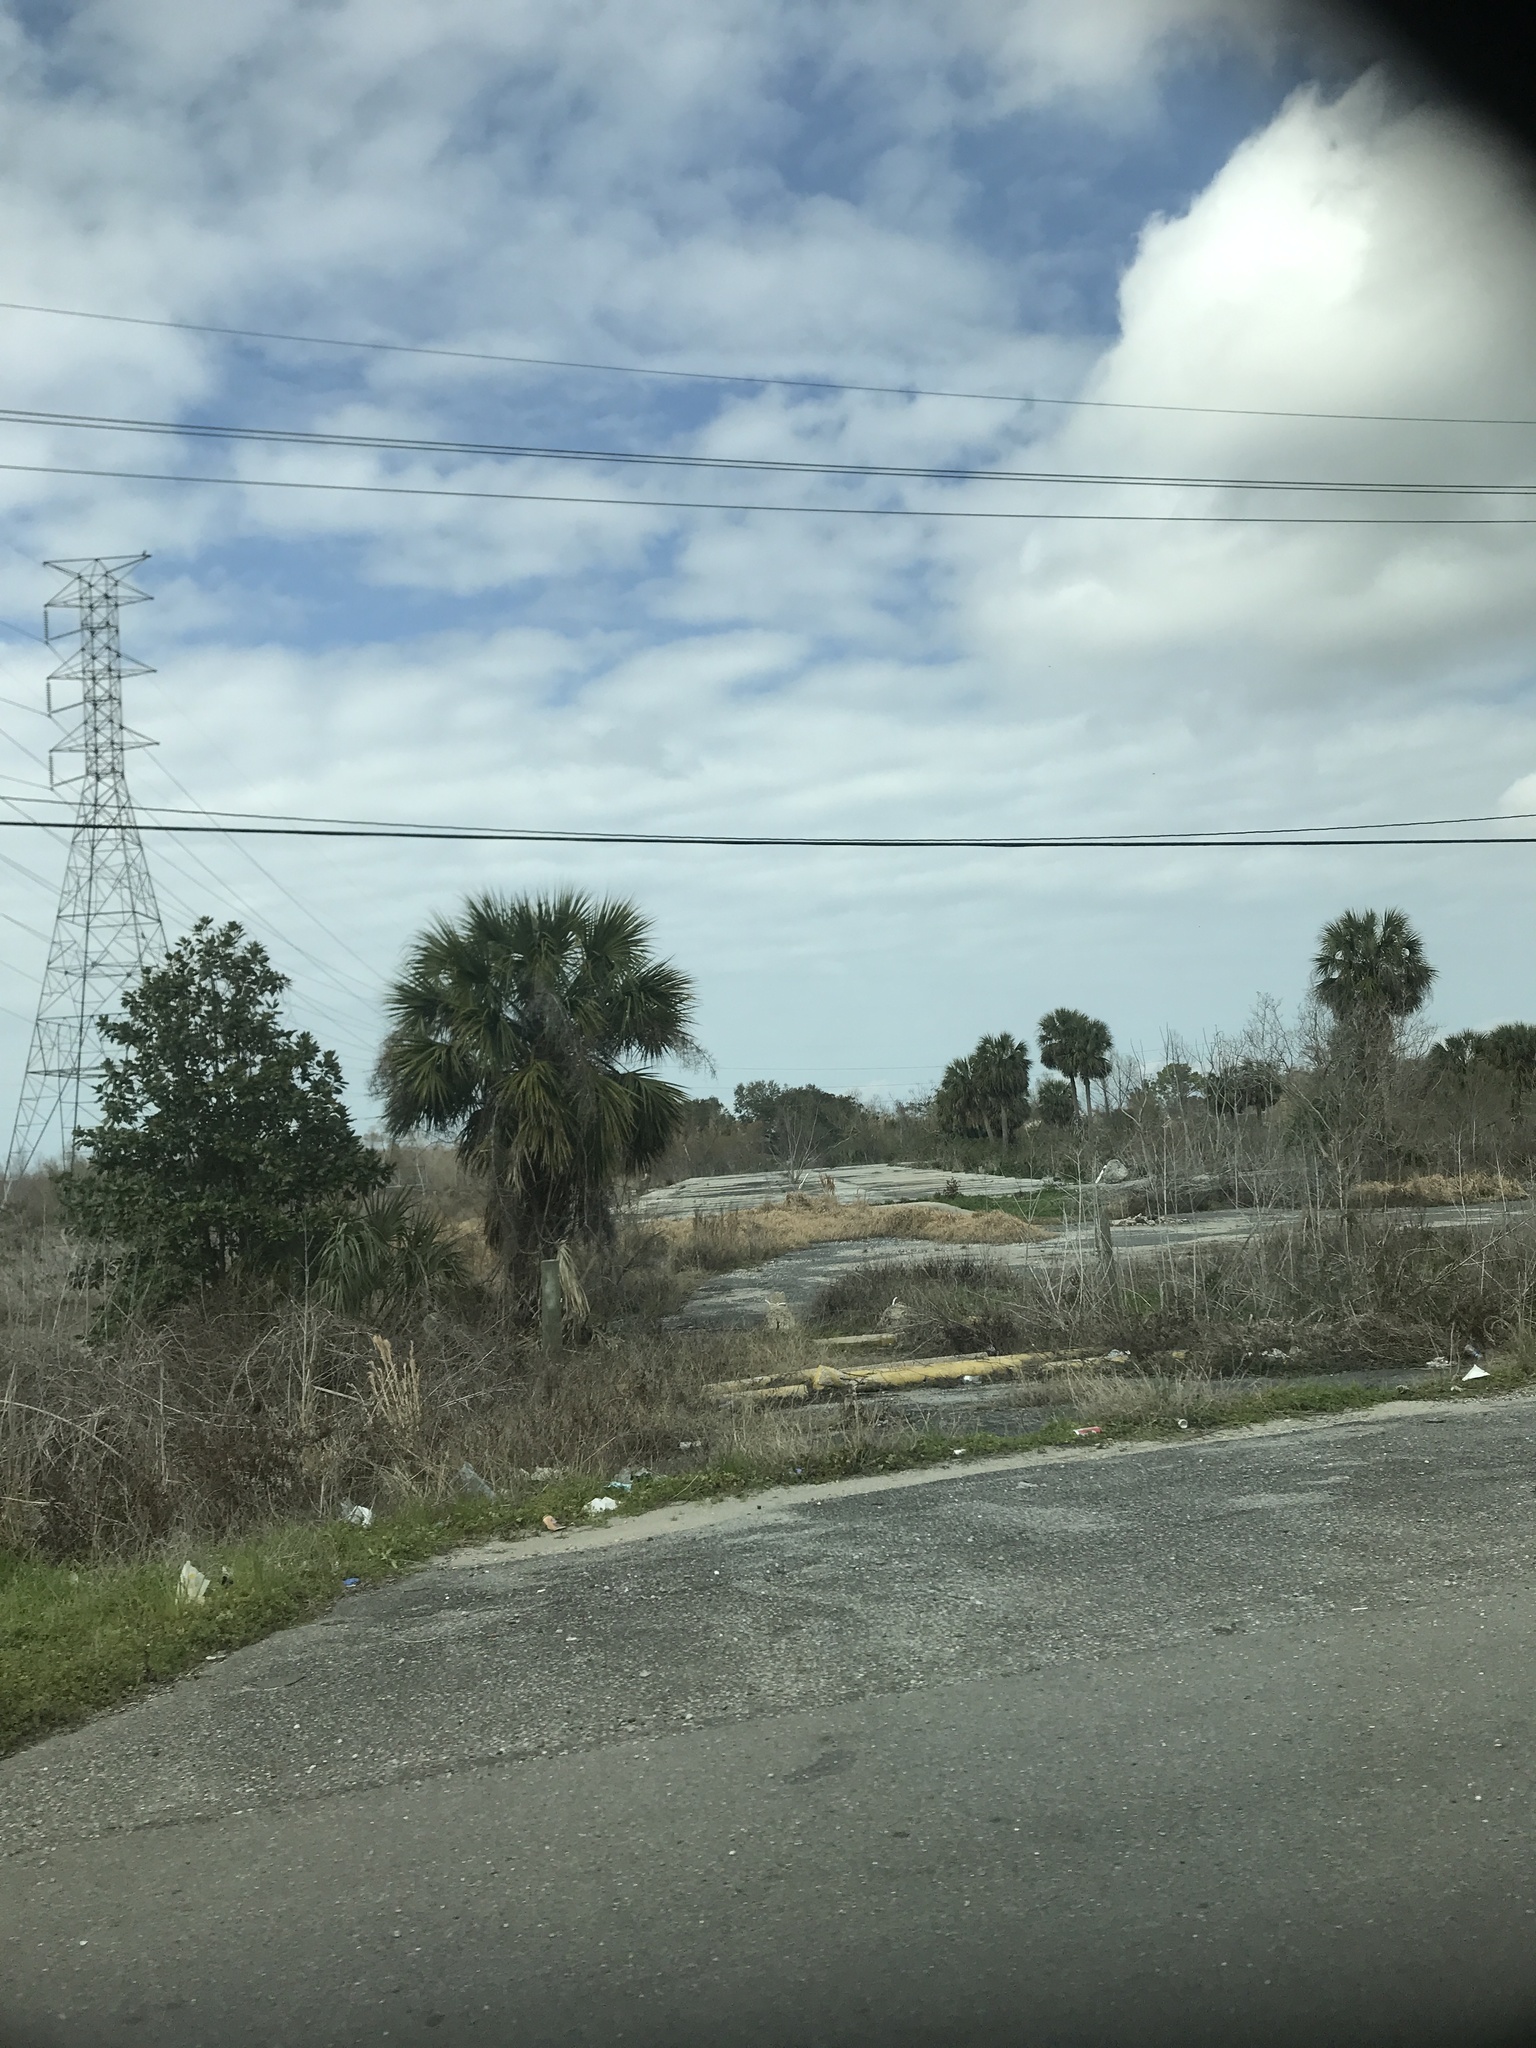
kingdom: Plantae
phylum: Tracheophyta
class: Liliopsida
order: Arecales
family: Arecaceae
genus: Sabal
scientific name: Sabal palmetto
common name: Blue palmetto
